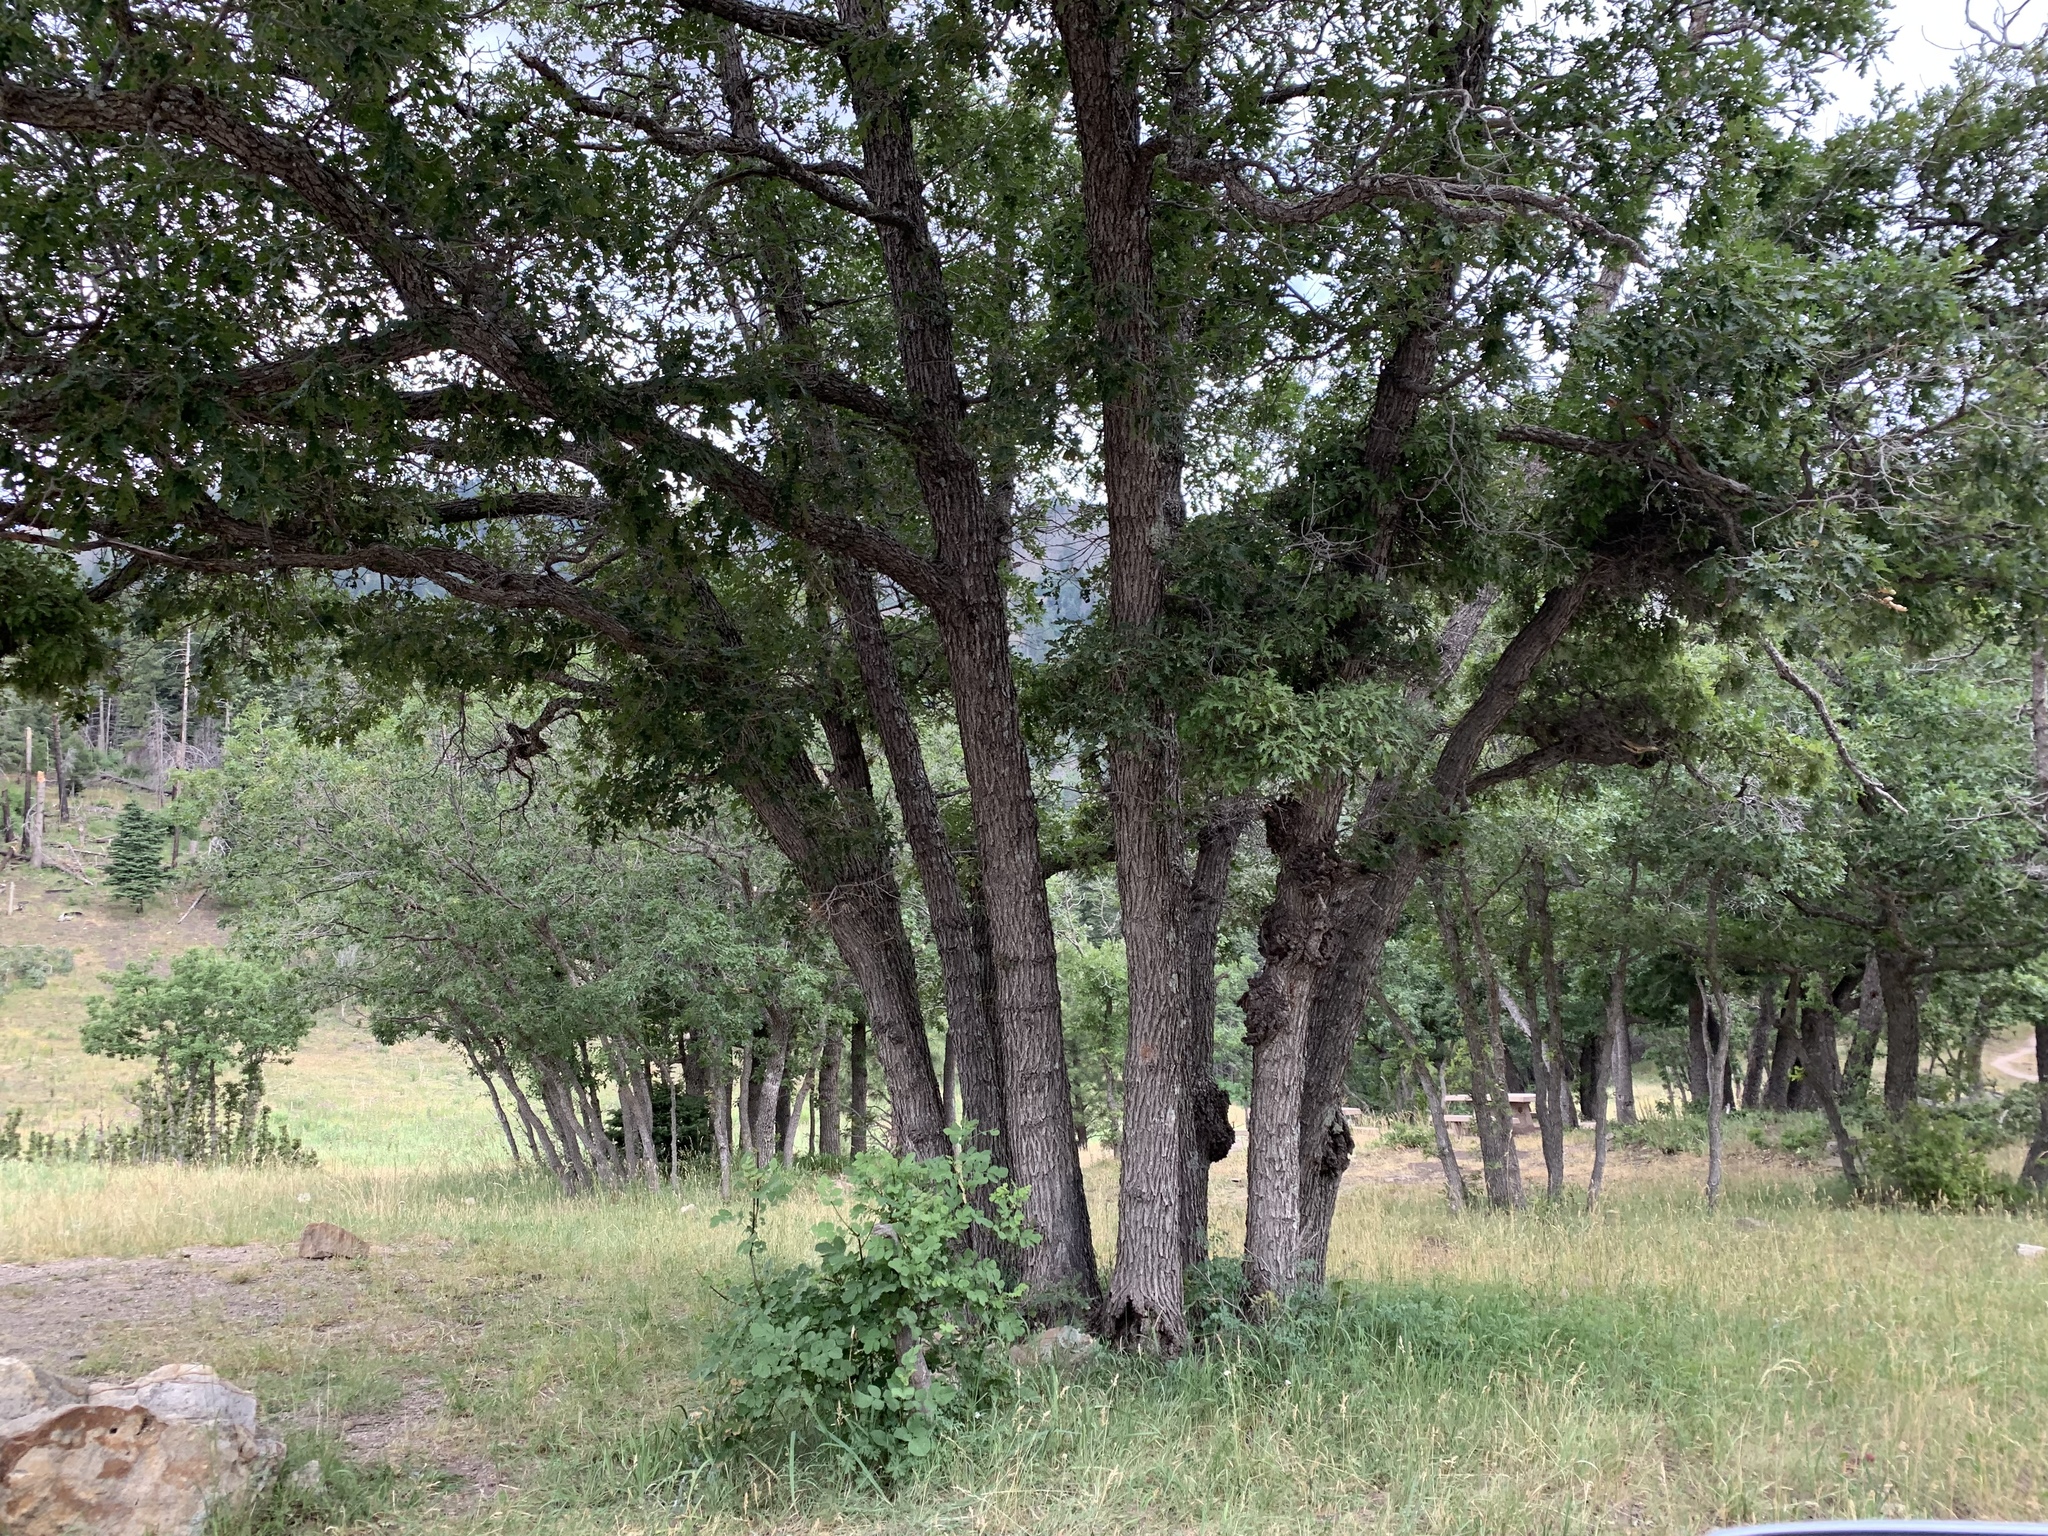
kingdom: Plantae
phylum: Tracheophyta
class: Magnoliopsida
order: Fagales
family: Fagaceae
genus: Quercus
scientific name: Quercus gambelii
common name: Gambel oak
